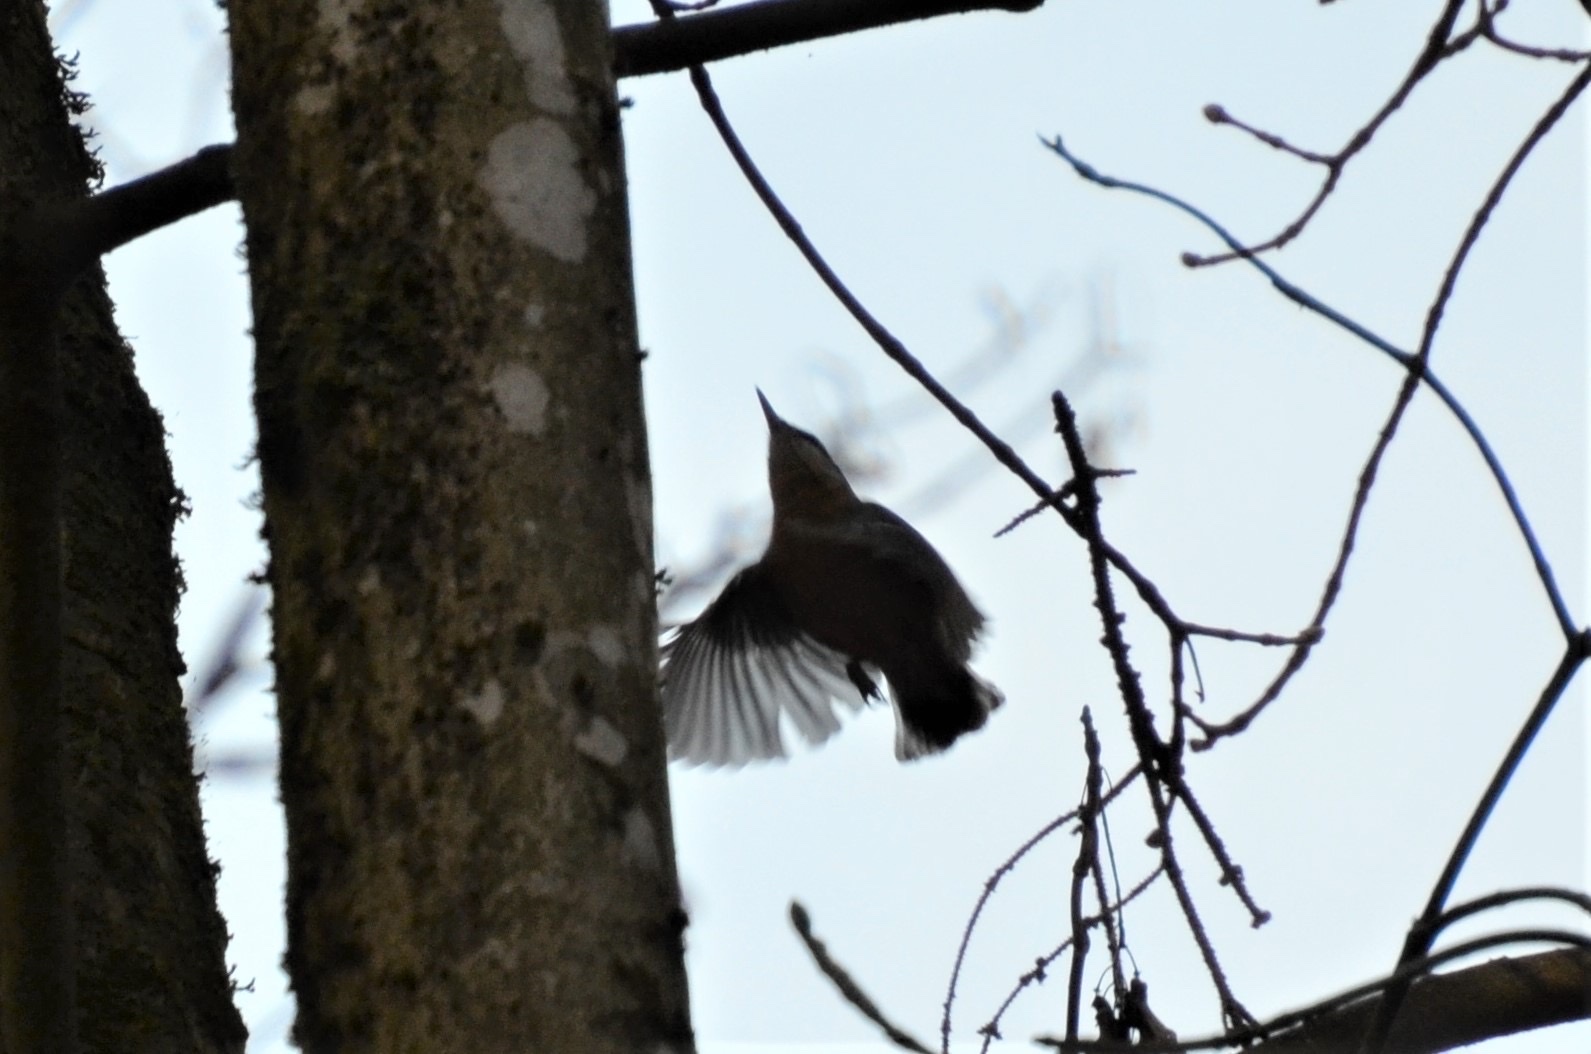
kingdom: Animalia
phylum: Chordata
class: Aves
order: Passeriformes
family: Sittidae
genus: Sitta
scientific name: Sitta europaea
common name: Eurasian nuthatch
